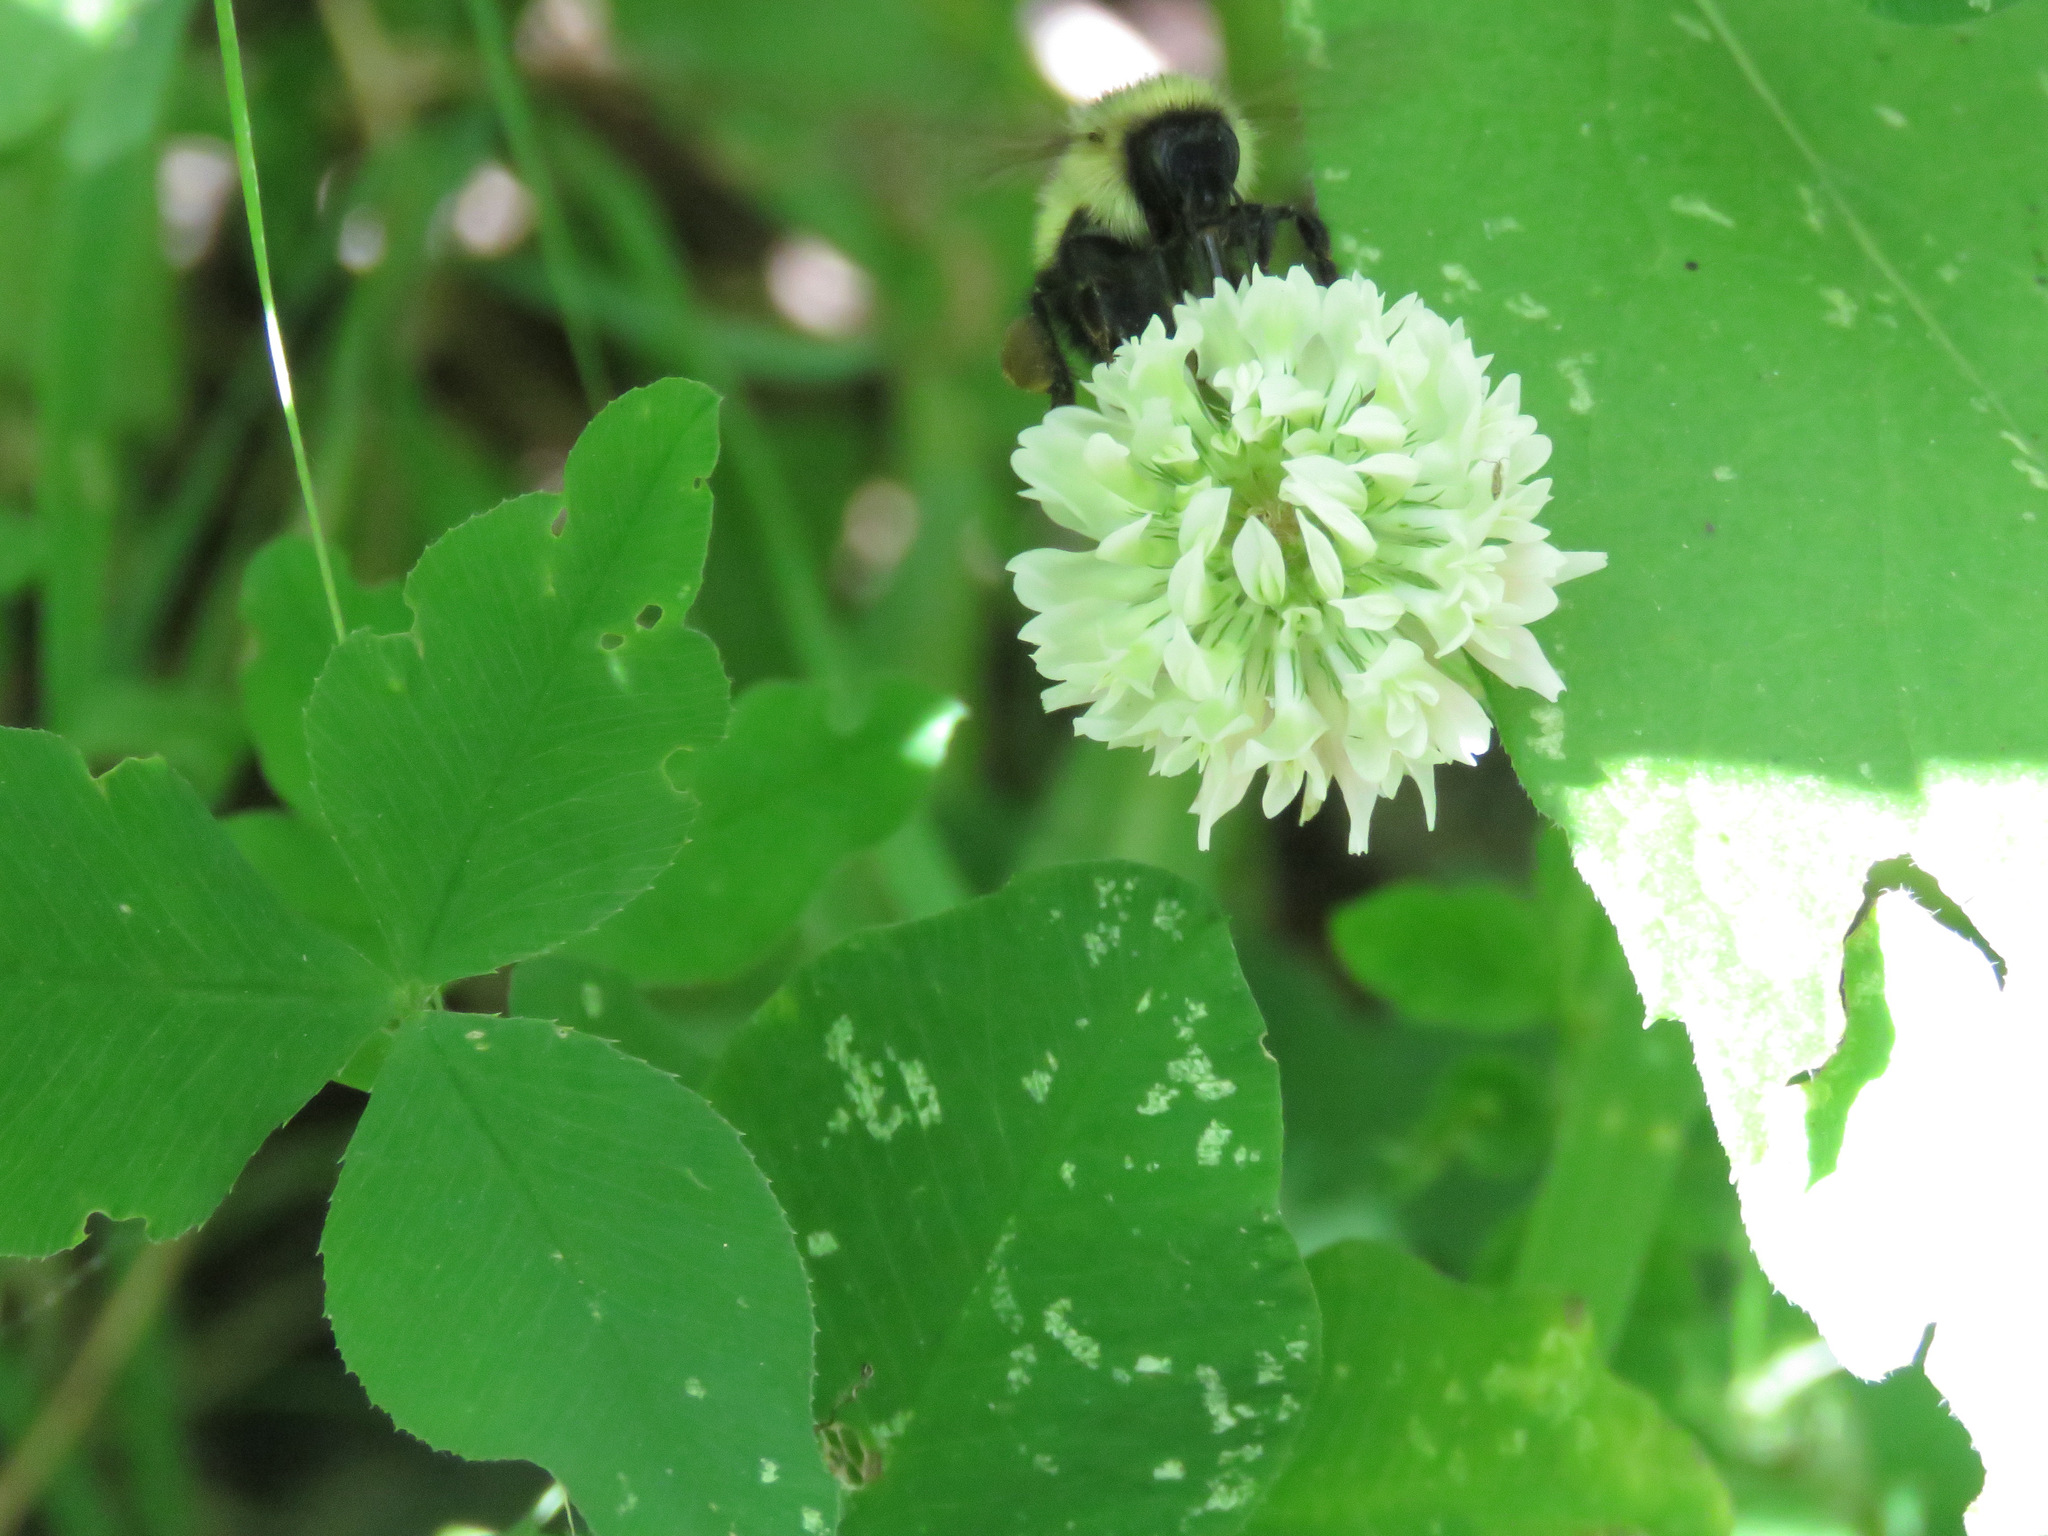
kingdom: Plantae
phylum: Tracheophyta
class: Magnoliopsida
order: Fabales
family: Fabaceae
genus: Trifolium
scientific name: Trifolium hybridum
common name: Alsike clover
